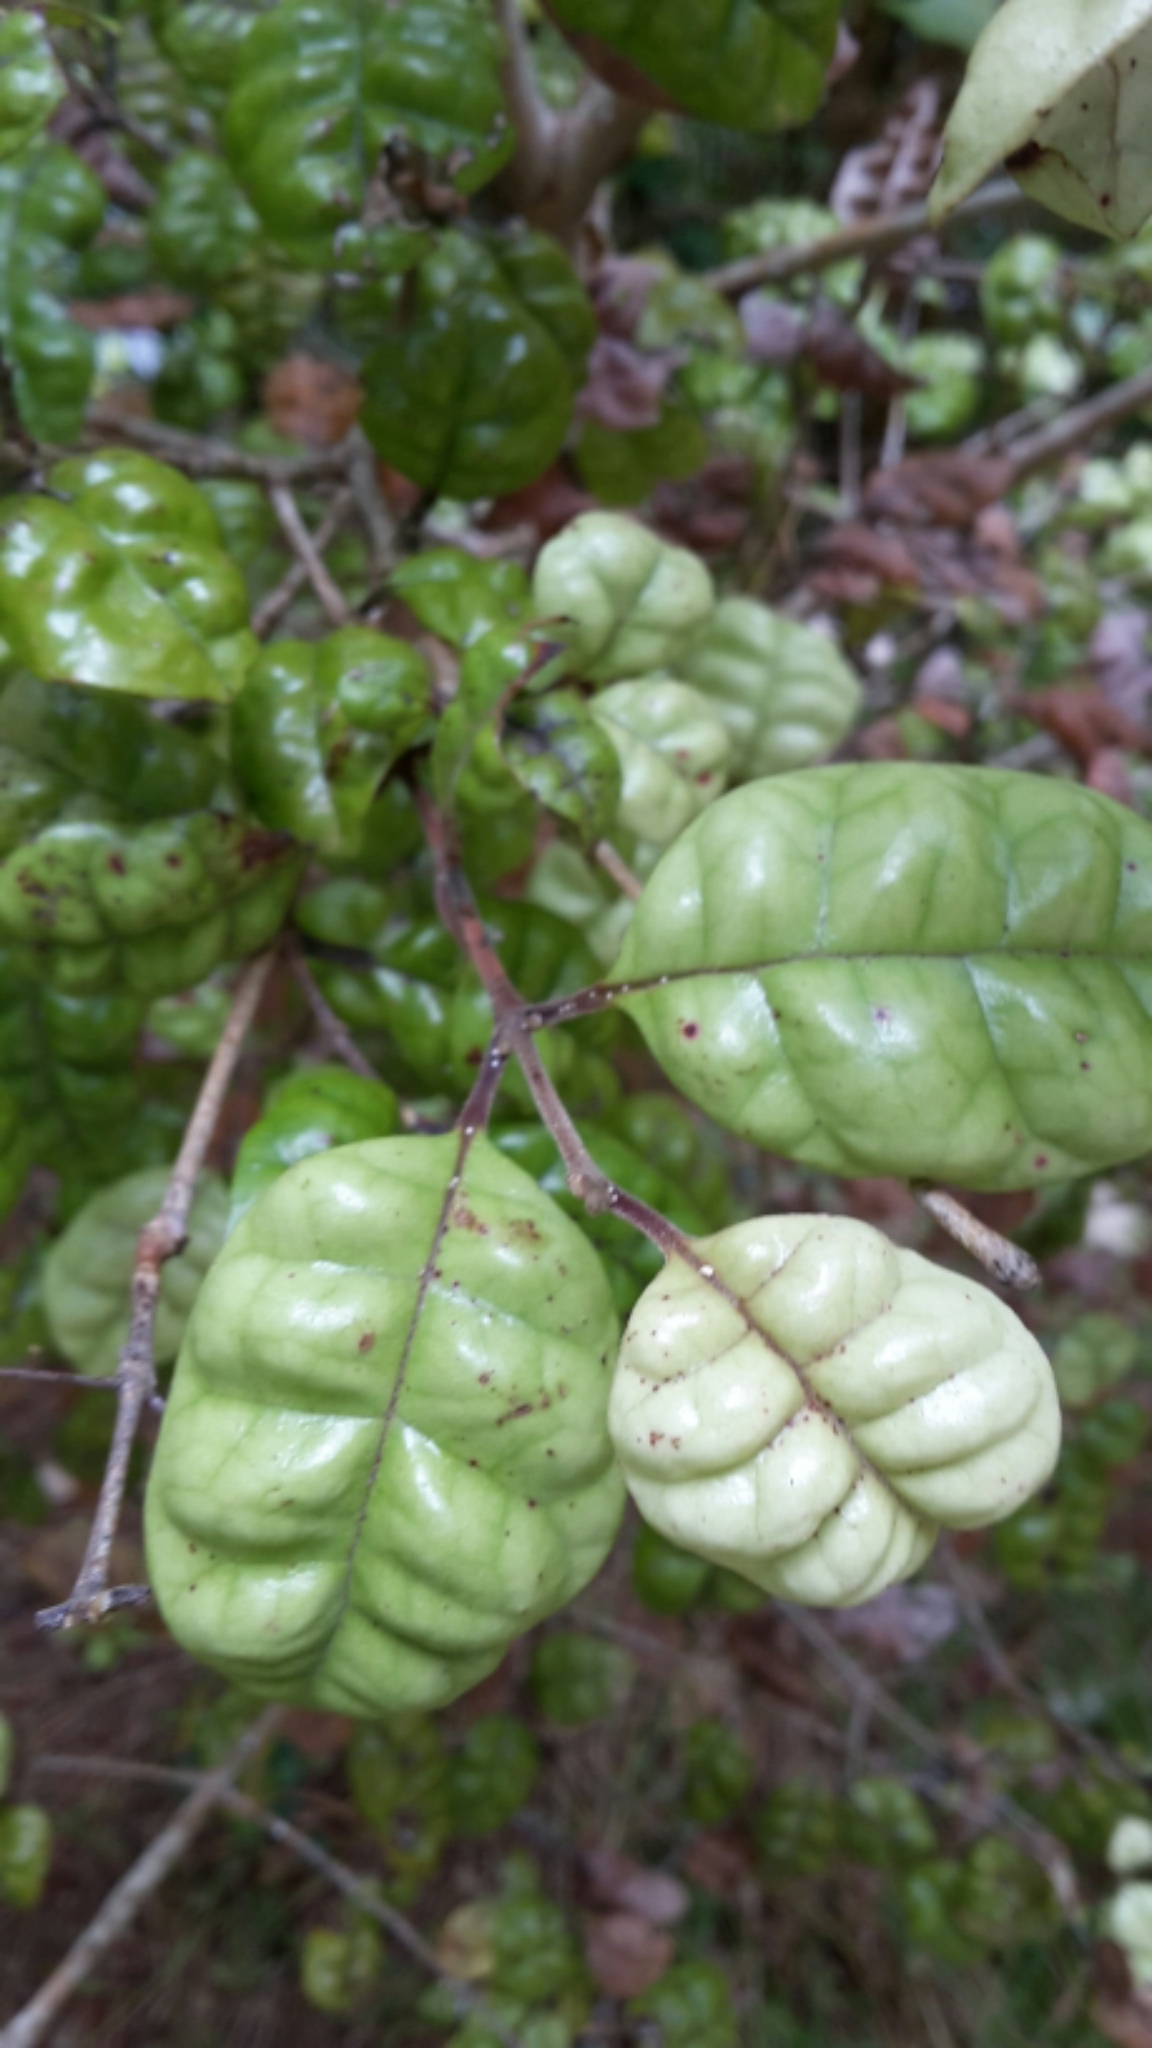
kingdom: Plantae
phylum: Tracheophyta
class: Magnoliopsida
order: Myrtales
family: Myrtaceae
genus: Lophomyrtus
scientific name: Lophomyrtus bullata
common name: Rama rama
